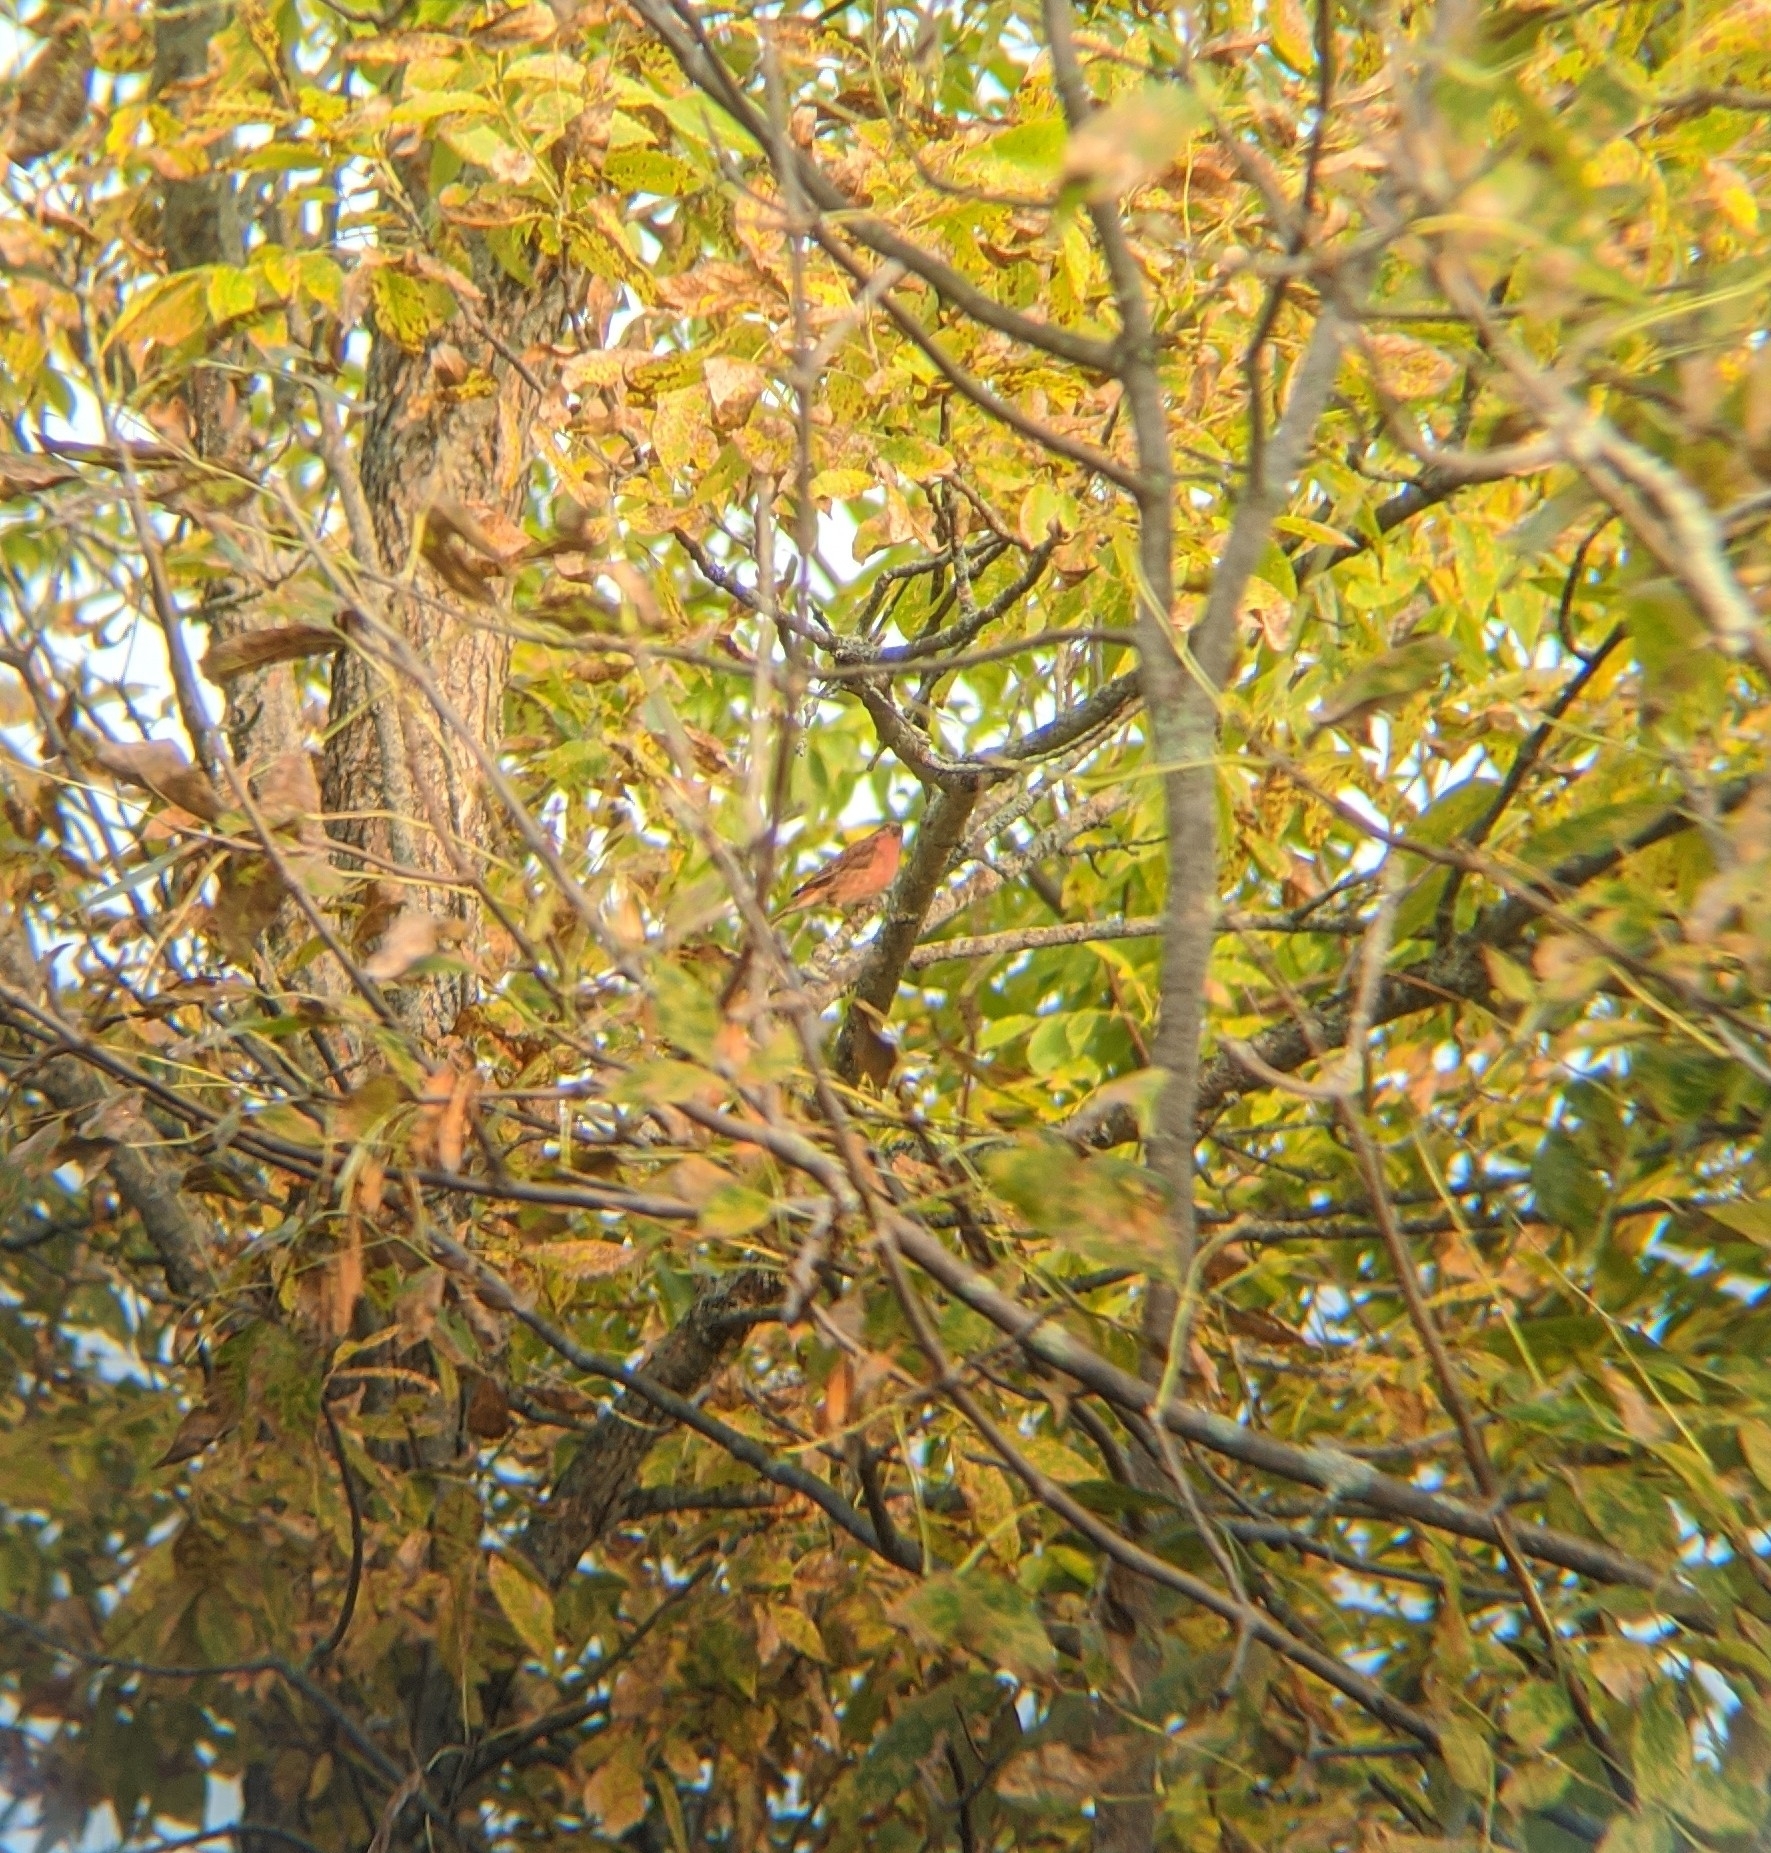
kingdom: Animalia
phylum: Chordata
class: Aves
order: Passeriformes
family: Fringillidae
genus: Haemorhous
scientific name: Haemorhous purpureus
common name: Purple finch
